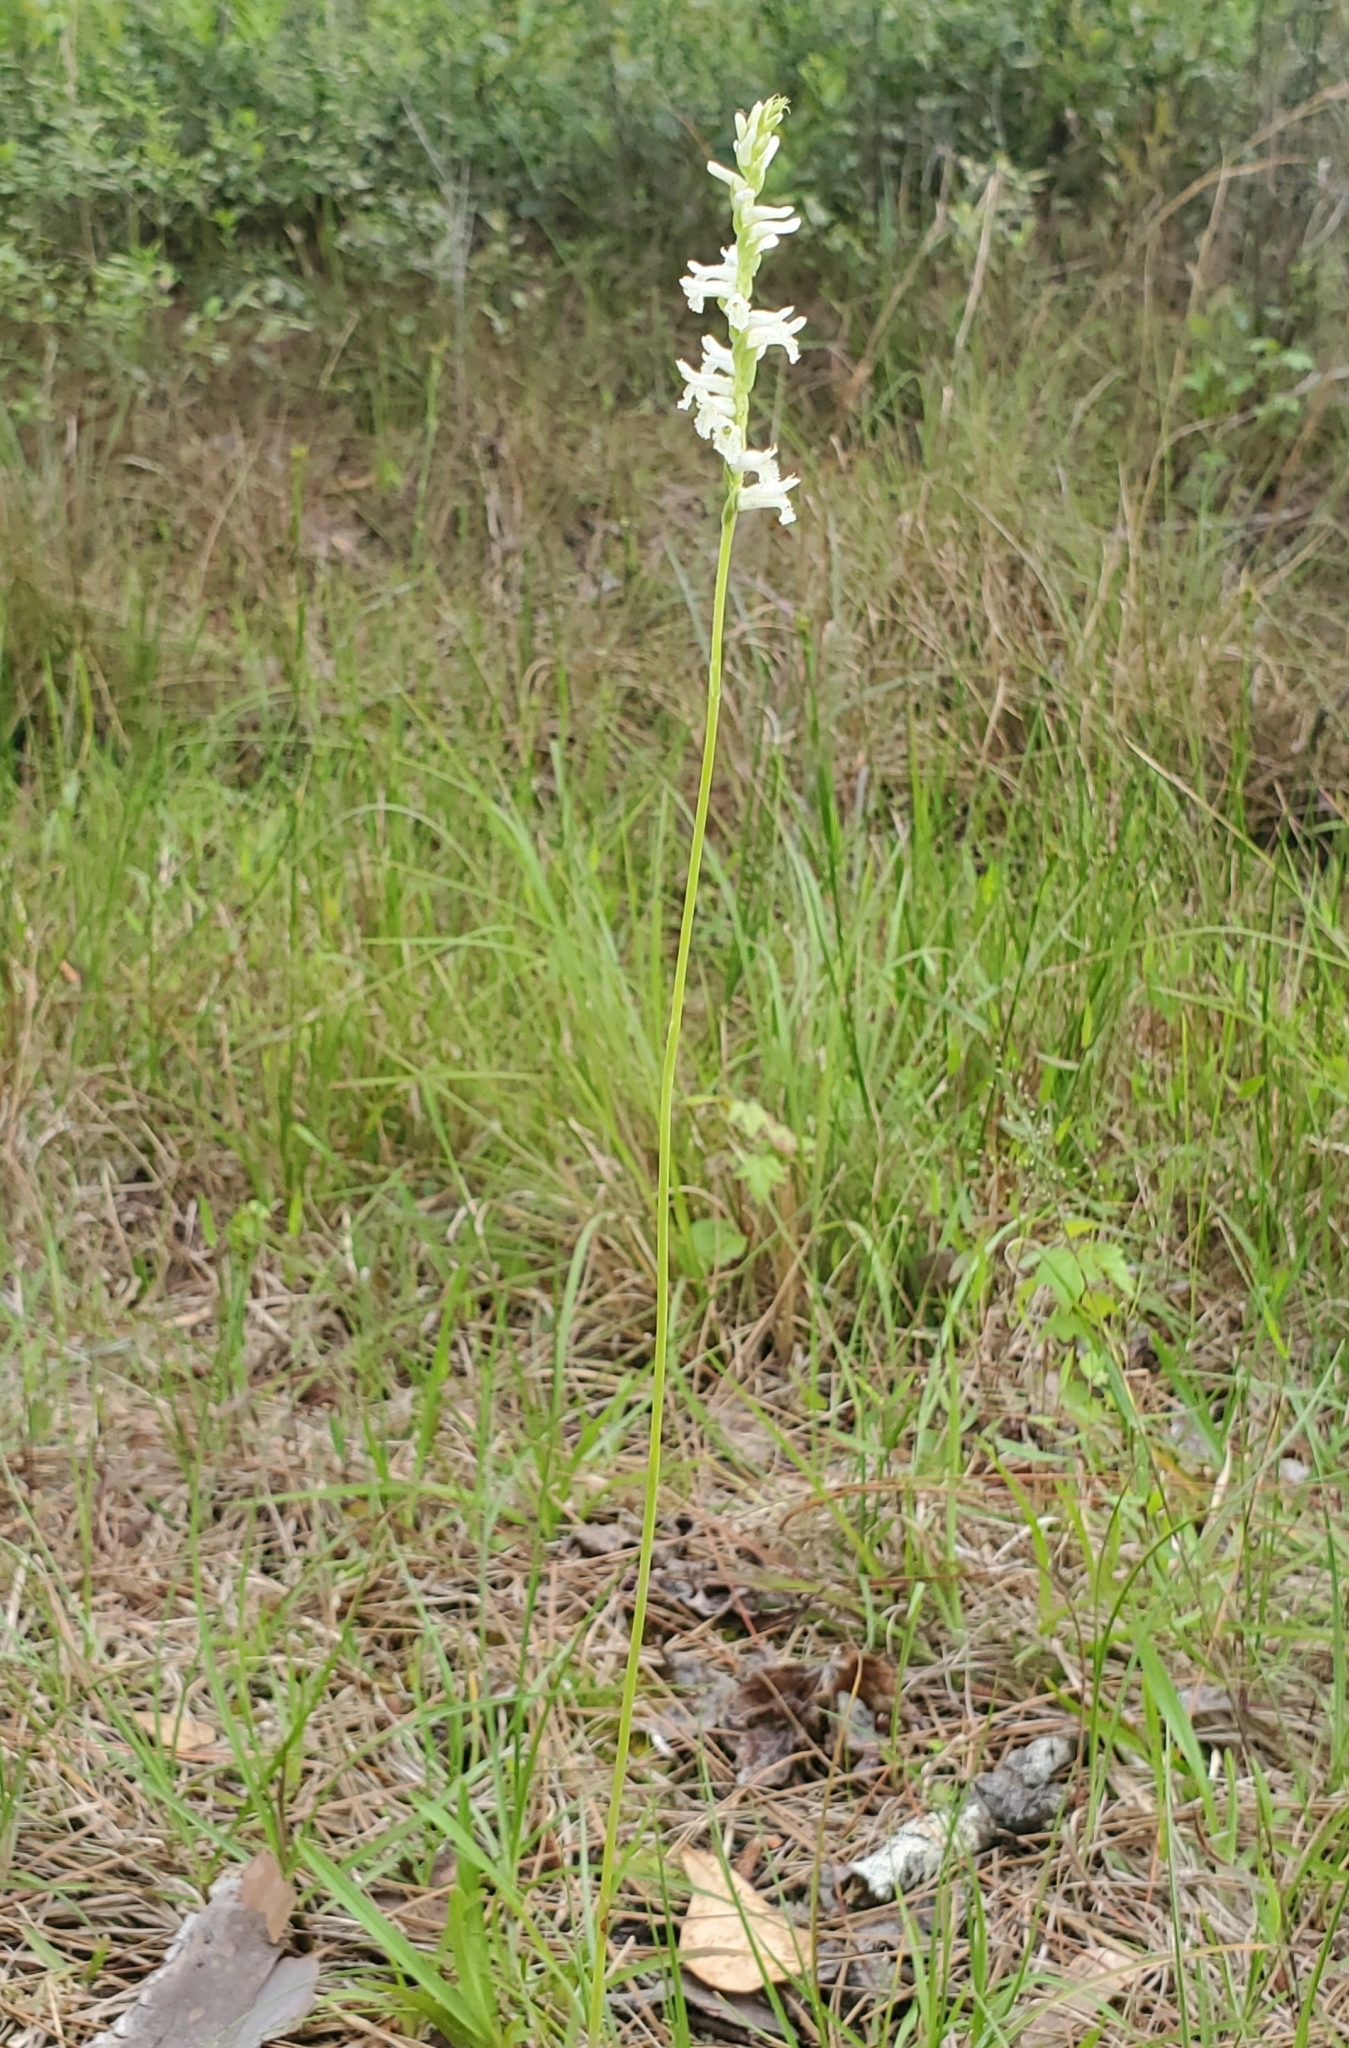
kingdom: Plantae
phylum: Tracheophyta
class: Liliopsida
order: Asparagales
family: Orchidaceae
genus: Spiranthes
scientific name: Spiranthes praecox
